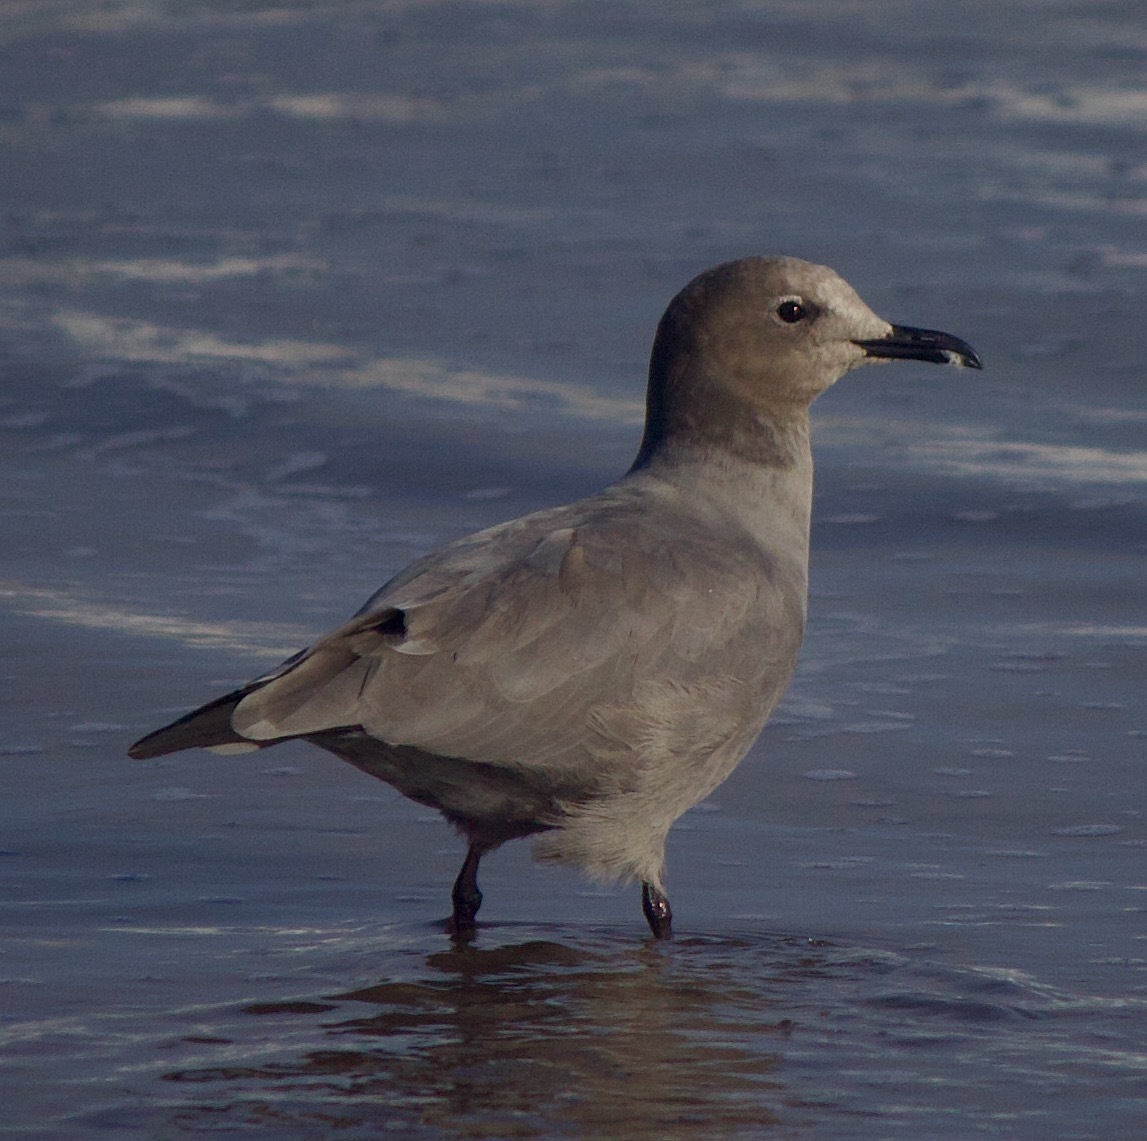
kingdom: Animalia
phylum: Chordata
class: Aves
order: Charadriiformes
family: Laridae
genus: Leucophaeus
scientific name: Leucophaeus modestus
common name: Gray gull
